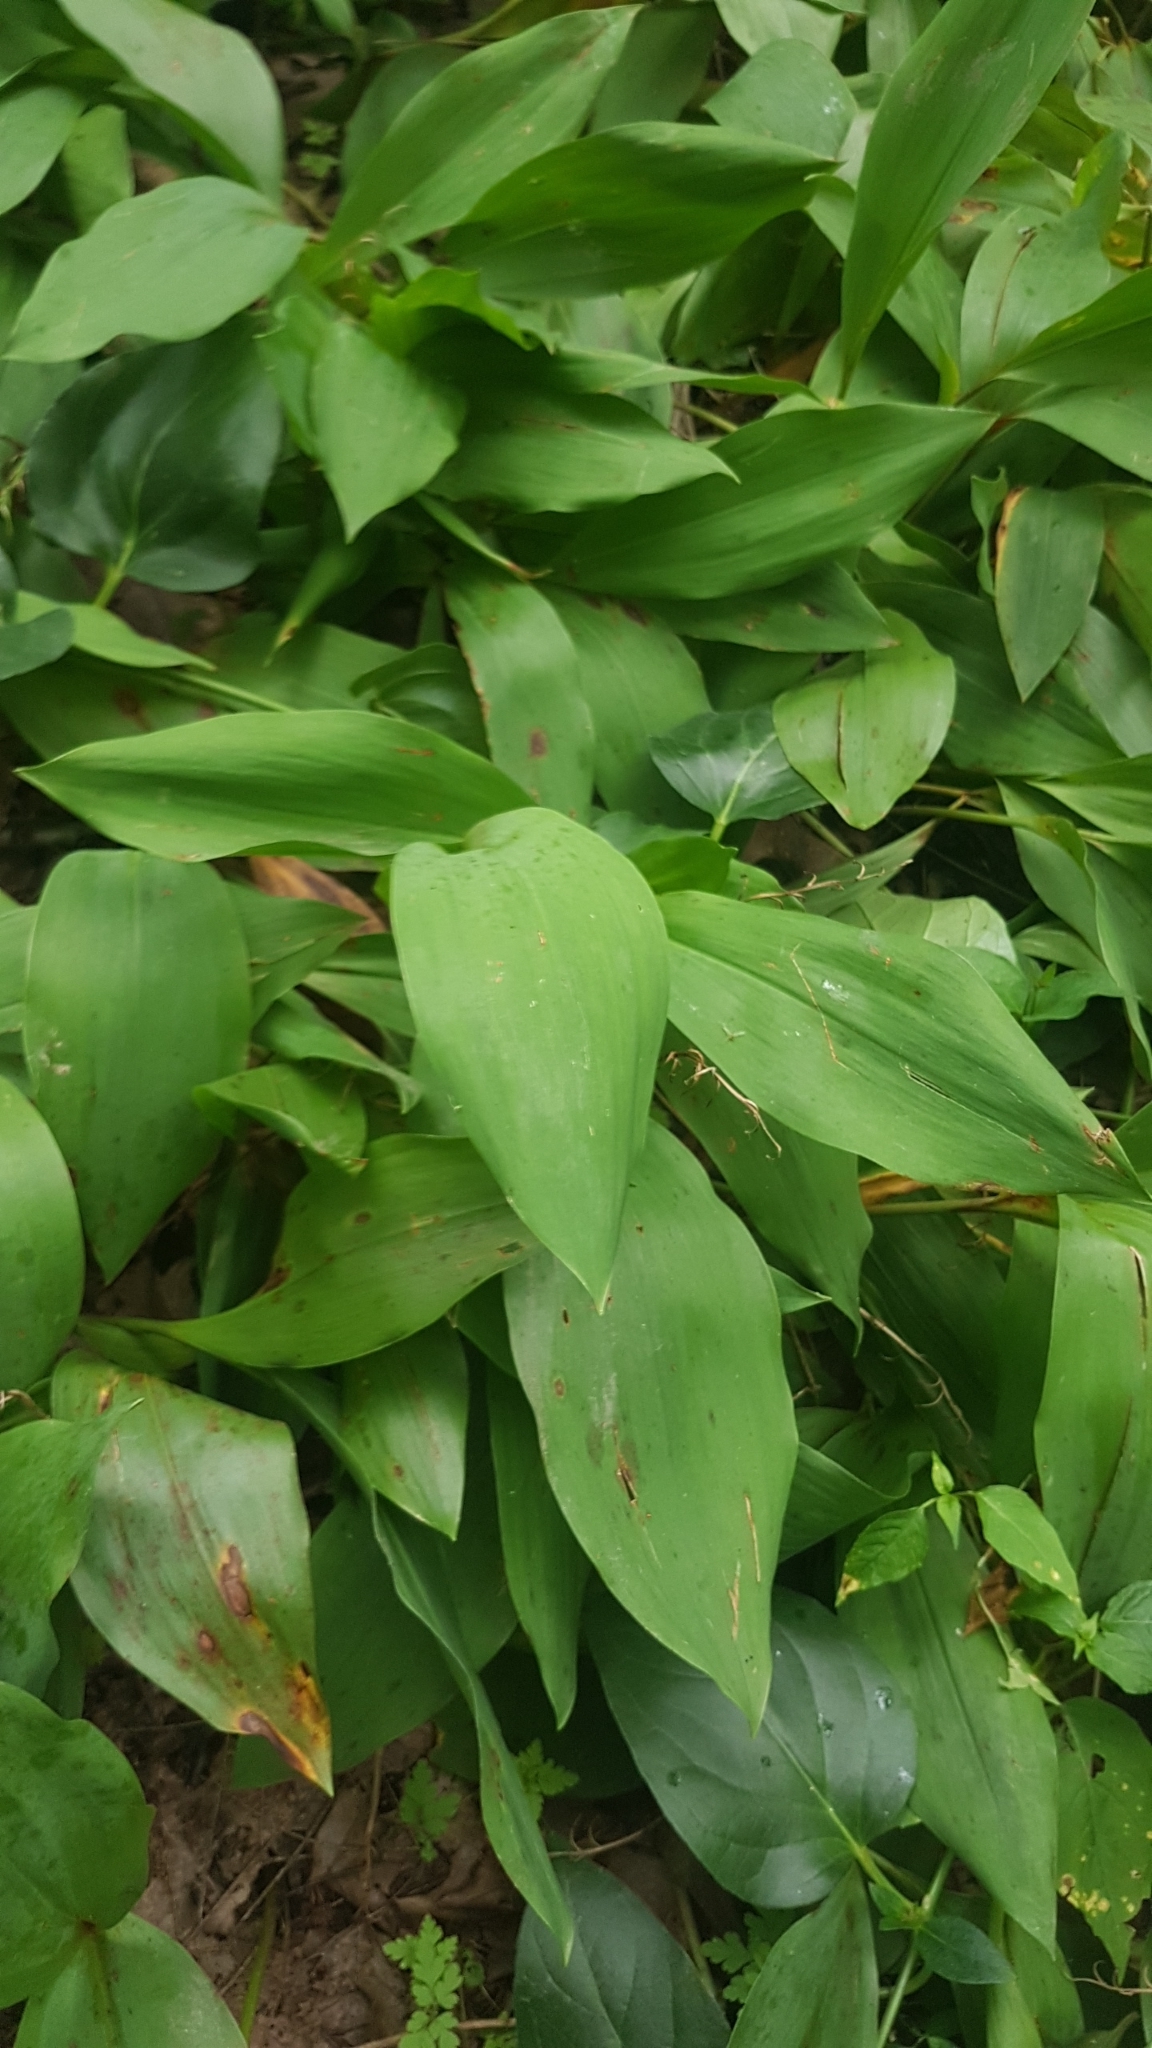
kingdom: Plantae
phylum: Tracheophyta
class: Liliopsida
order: Asparagales
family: Asparagaceae
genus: Convallaria
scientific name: Convallaria majalis
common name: Lily-of-the-valley
